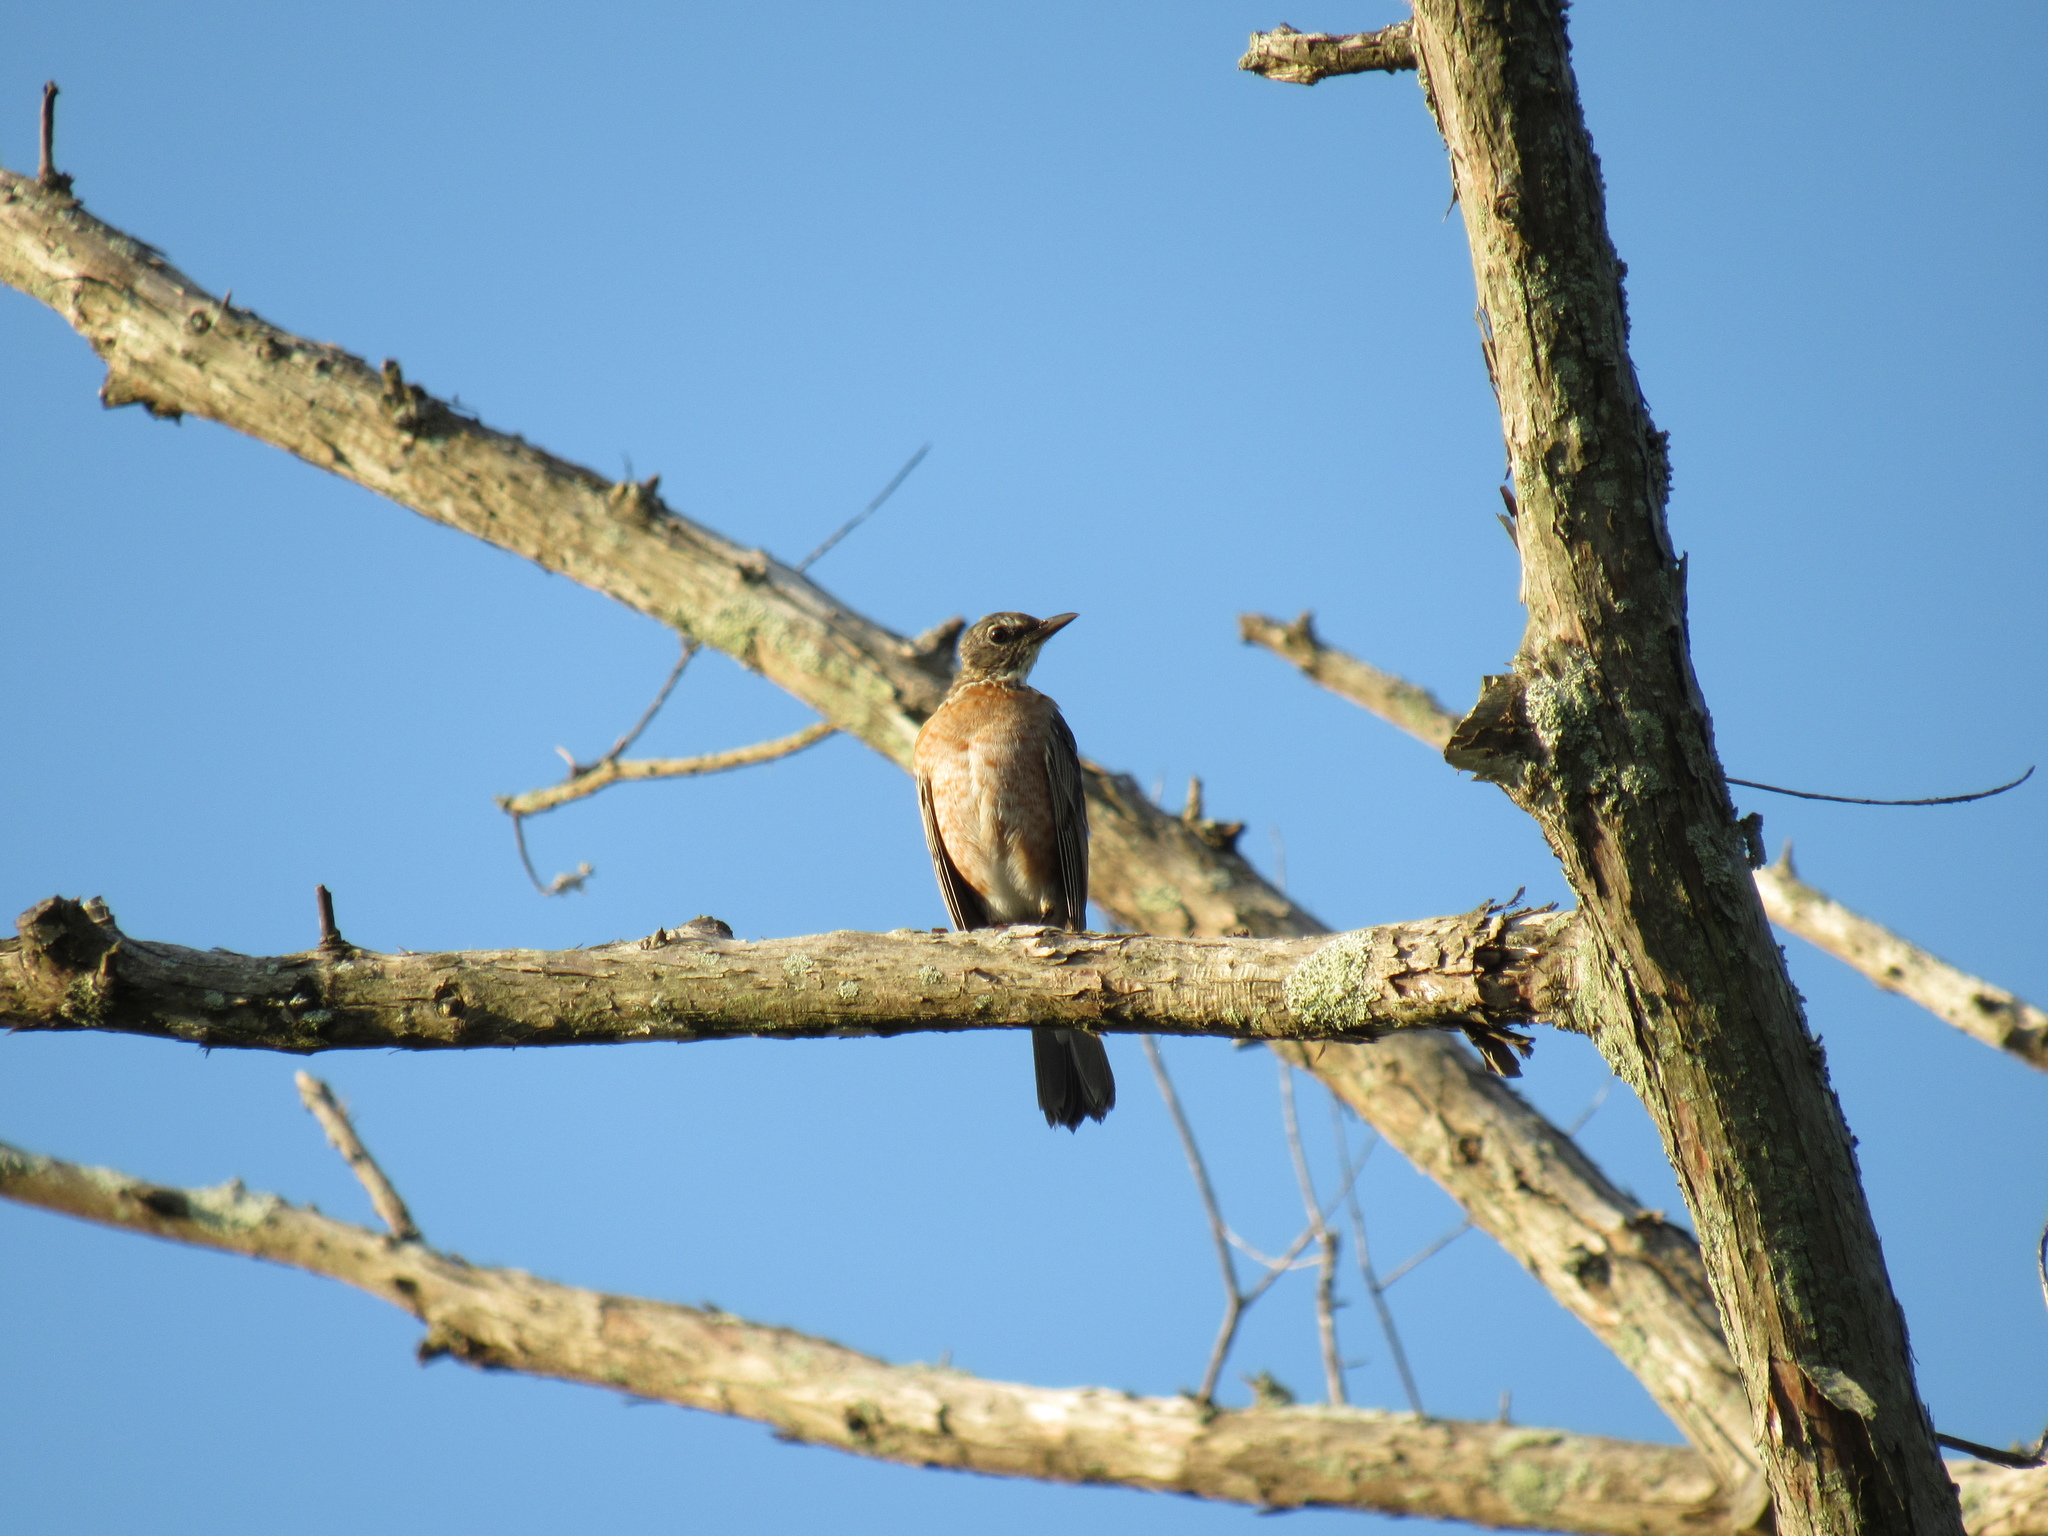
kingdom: Animalia
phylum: Chordata
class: Aves
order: Passeriformes
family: Turdidae
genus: Turdus
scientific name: Turdus migratorius
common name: American robin
